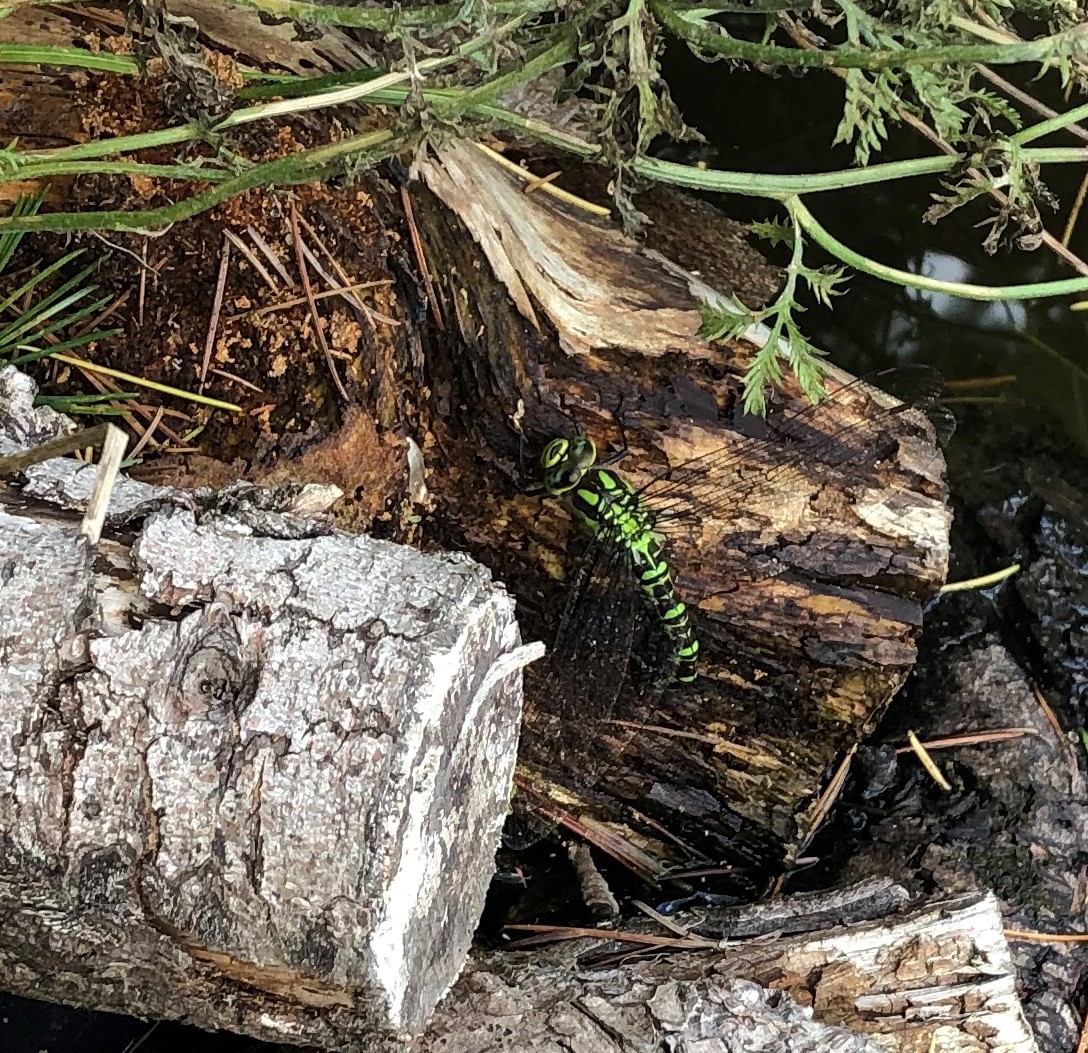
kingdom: Animalia
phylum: Arthropoda
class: Insecta
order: Odonata
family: Aeshnidae
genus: Aeshna
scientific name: Aeshna cyanea
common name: Southern hawker
